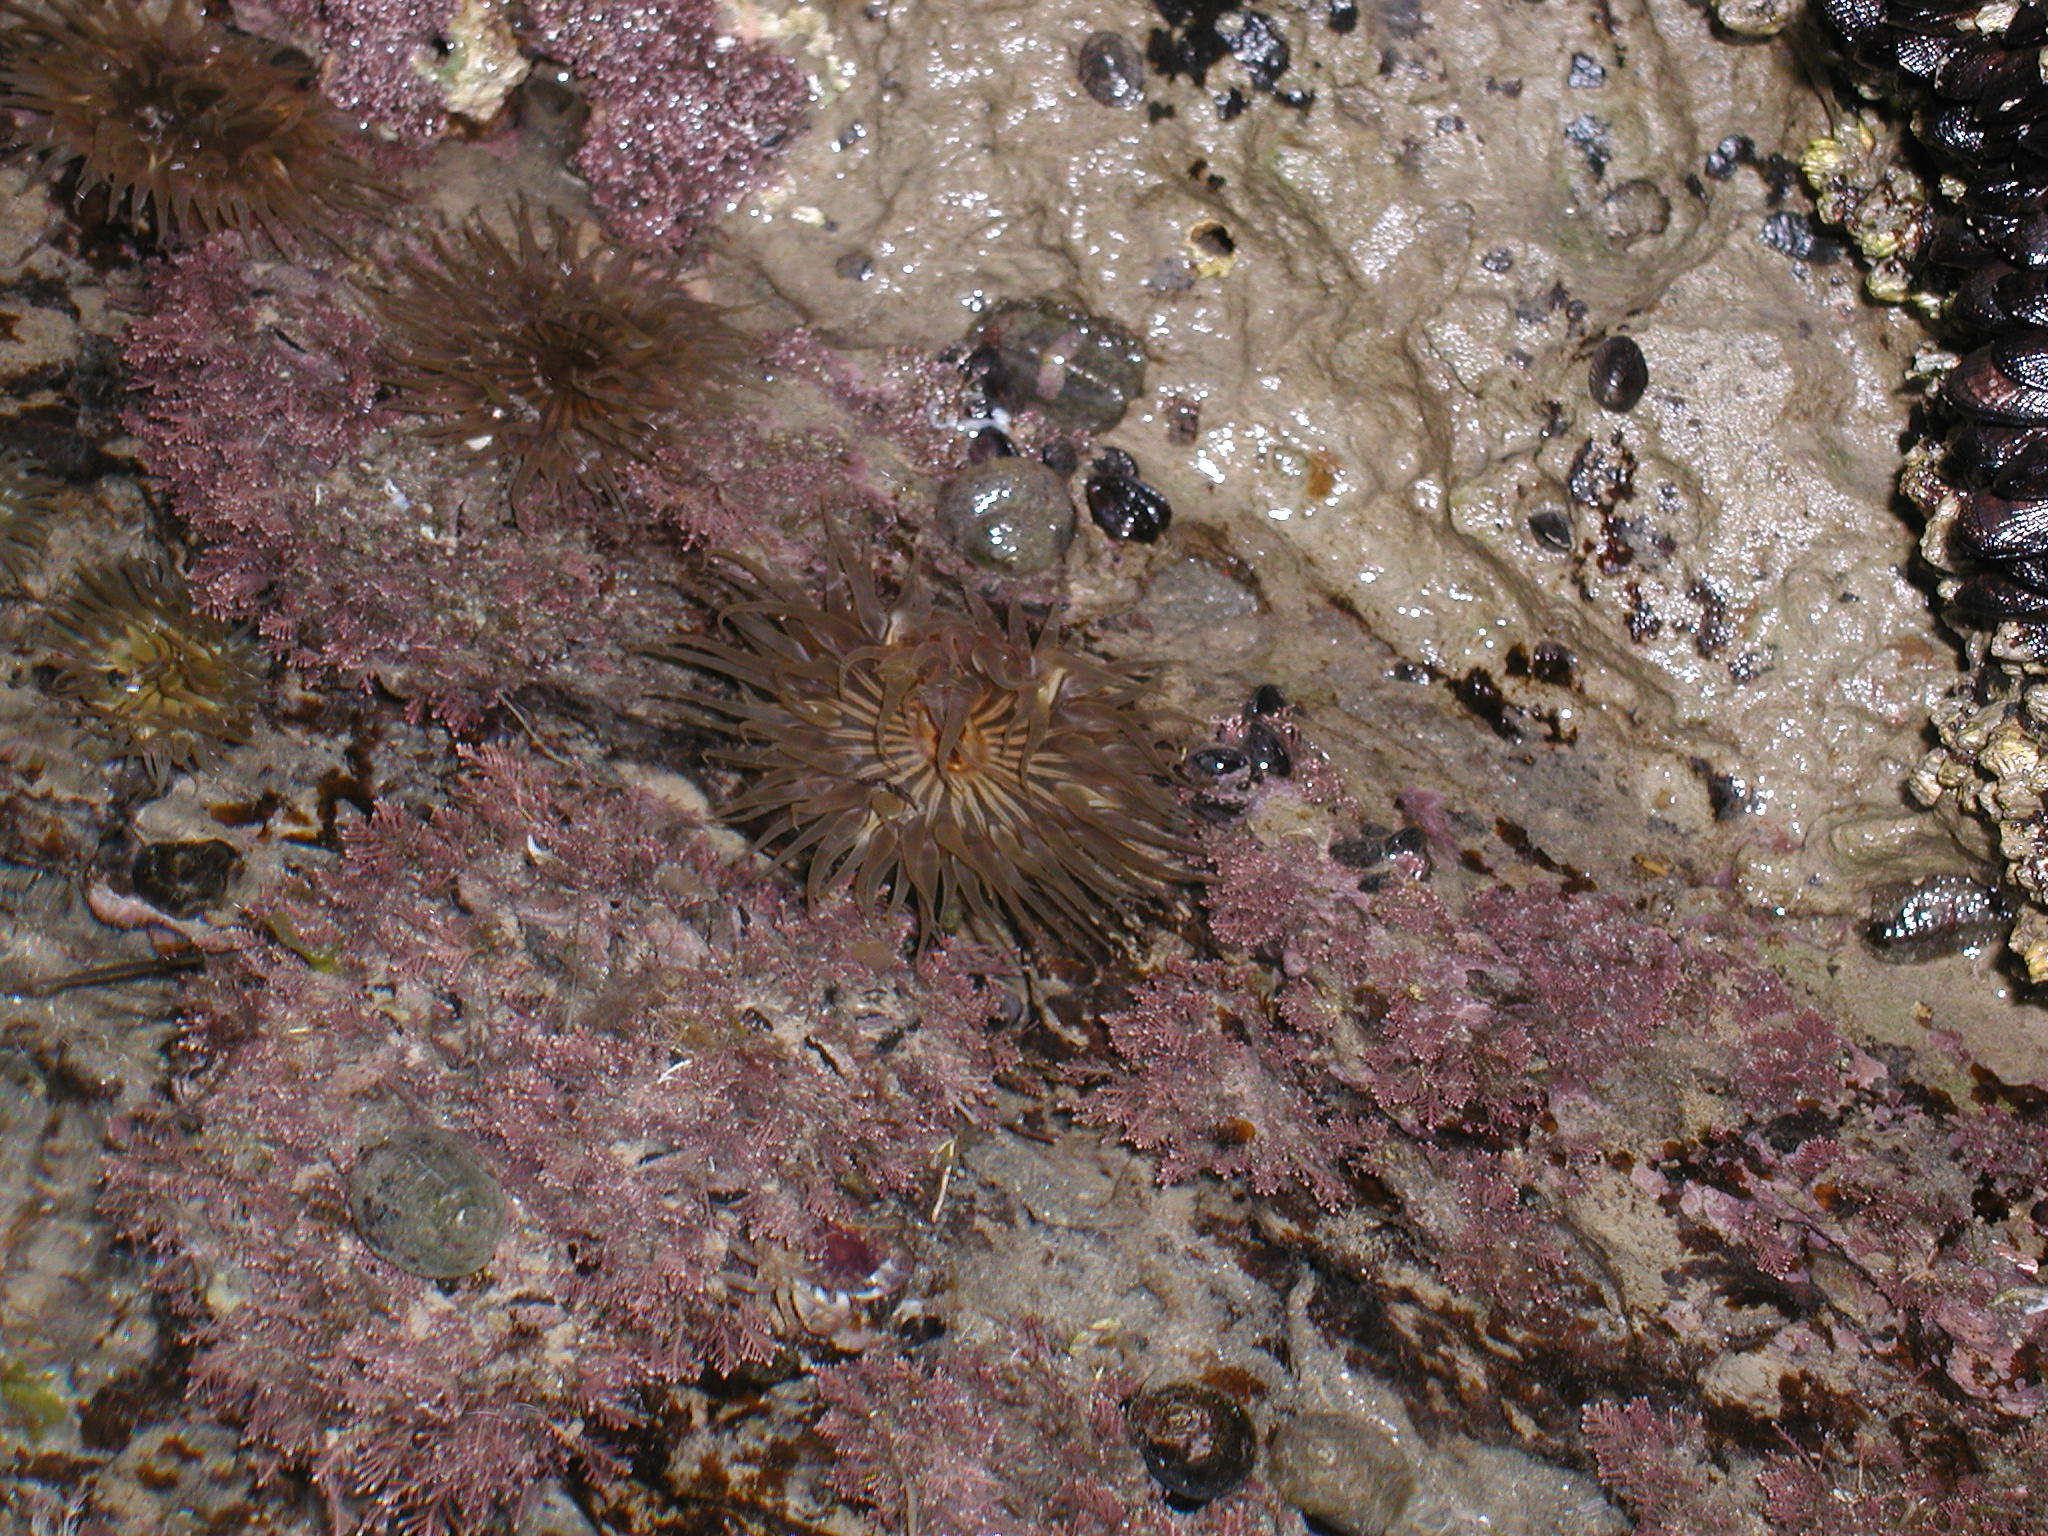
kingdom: Animalia
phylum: Cnidaria
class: Anthozoa
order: Actiniaria
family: Actiniidae
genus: Parabunodactis
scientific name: Parabunodactis imperfecta
